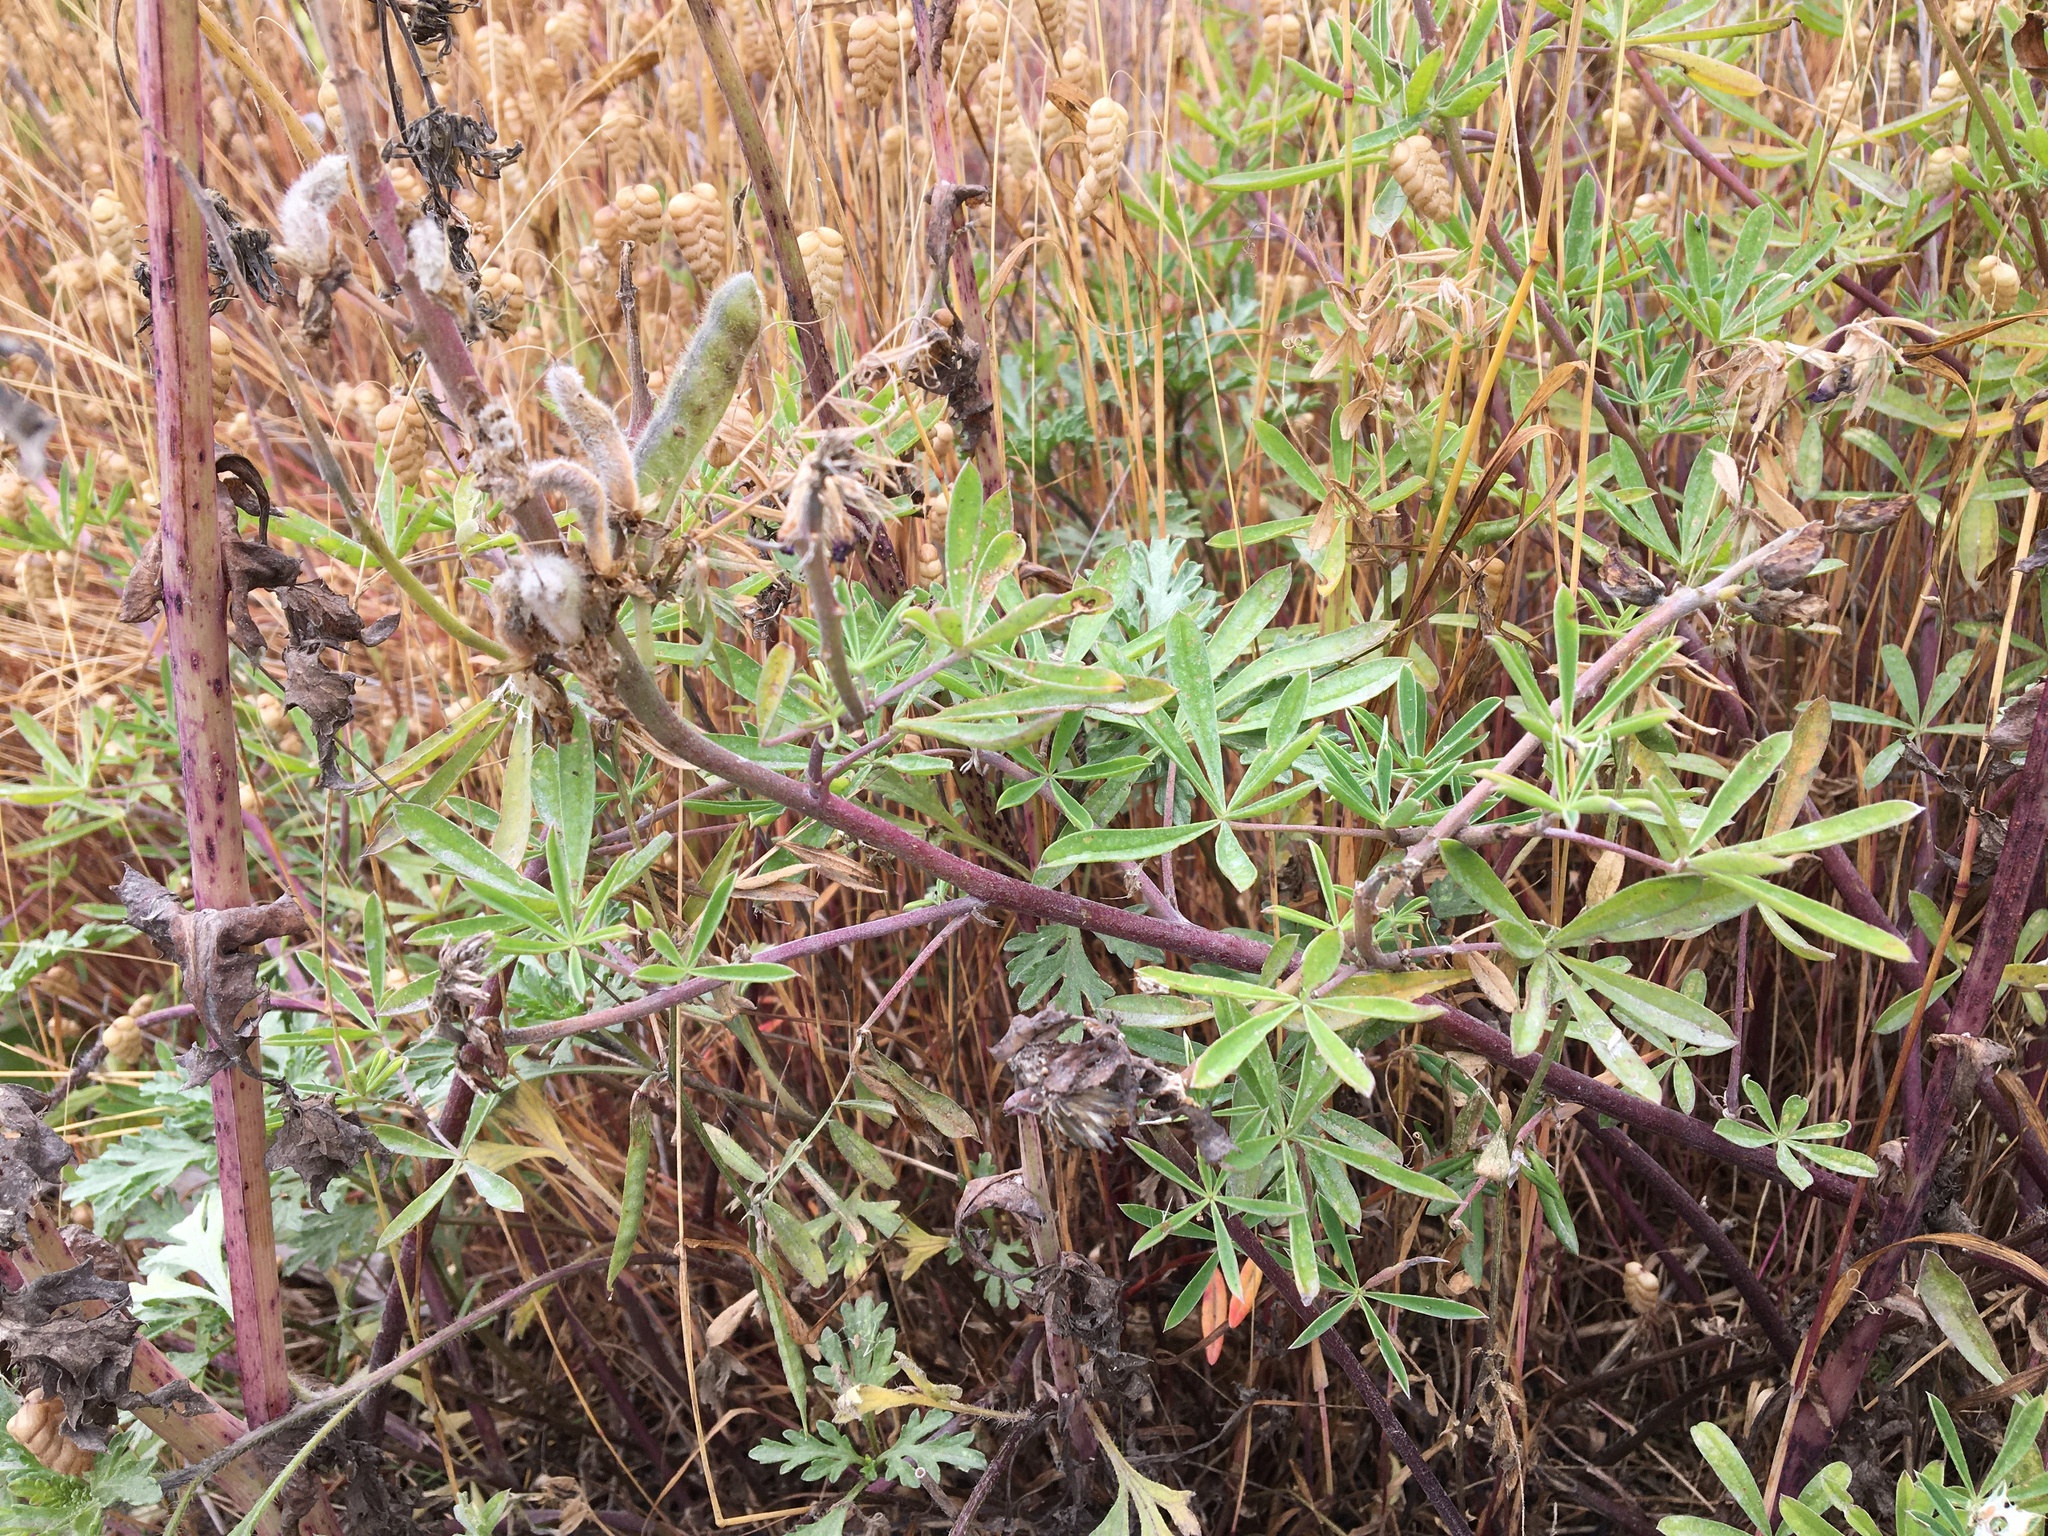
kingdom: Plantae
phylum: Tracheophyta
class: Magnoliopsida
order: Fabales
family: Fabaceae
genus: Lupinus
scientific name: Lupinus littoralis
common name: Seashore lupine
